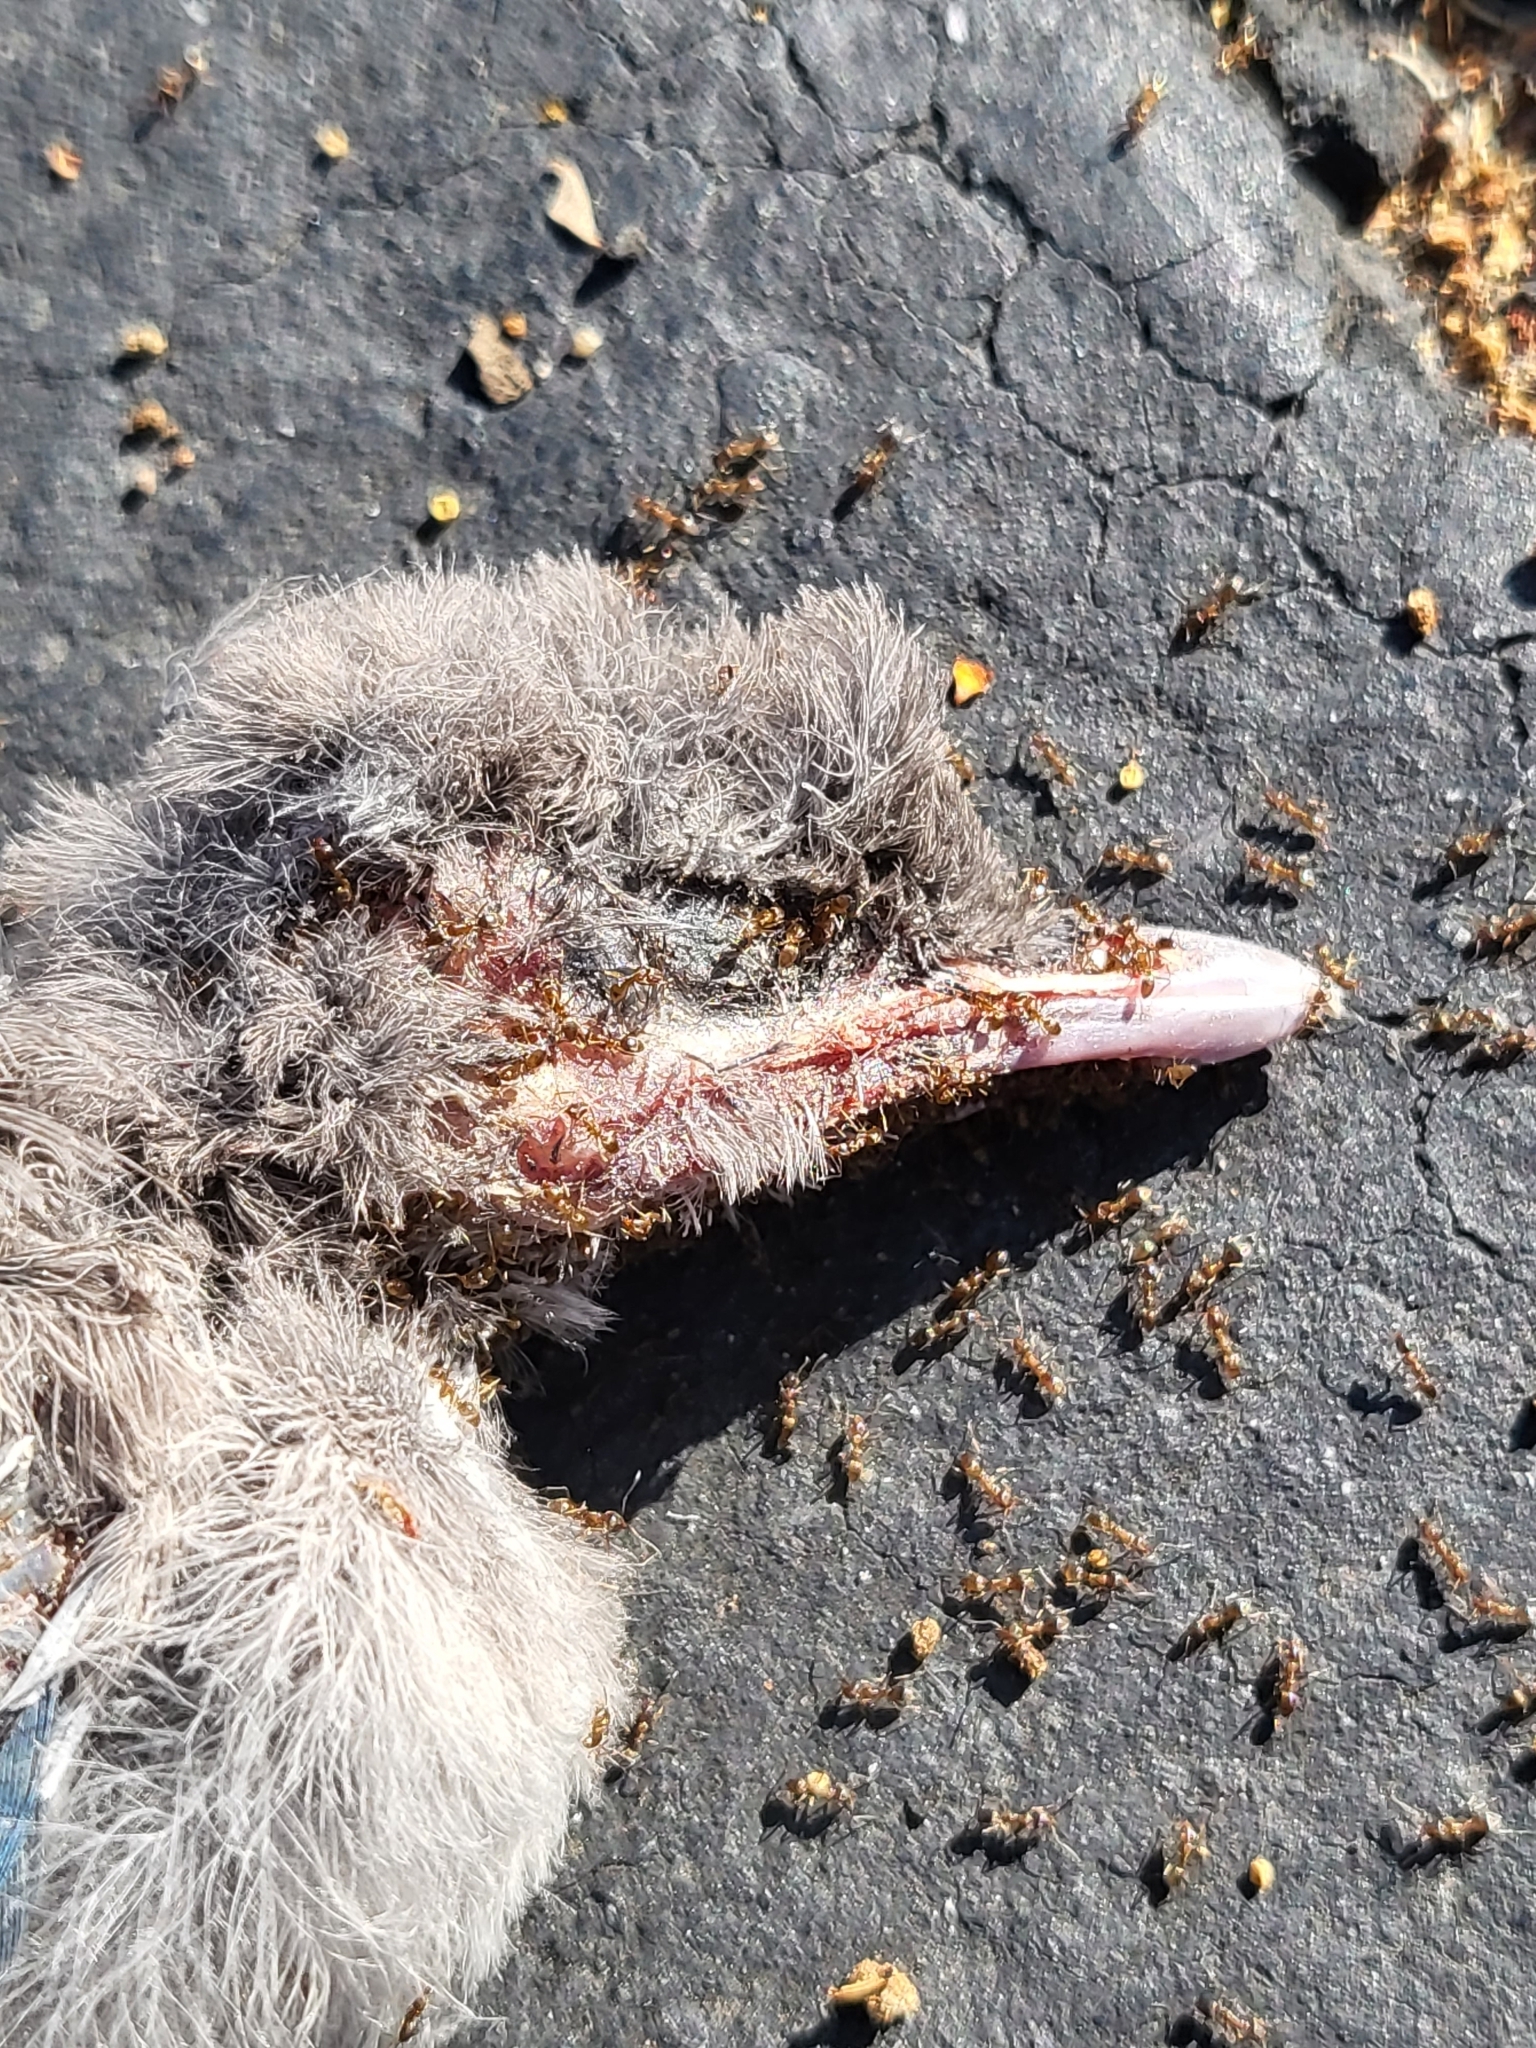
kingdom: Animalia
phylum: Chordata
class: Aves
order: Passeriformes
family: Corvidae
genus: Aphelocoma
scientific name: Aphelocoma californica
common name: California scrub-jay
